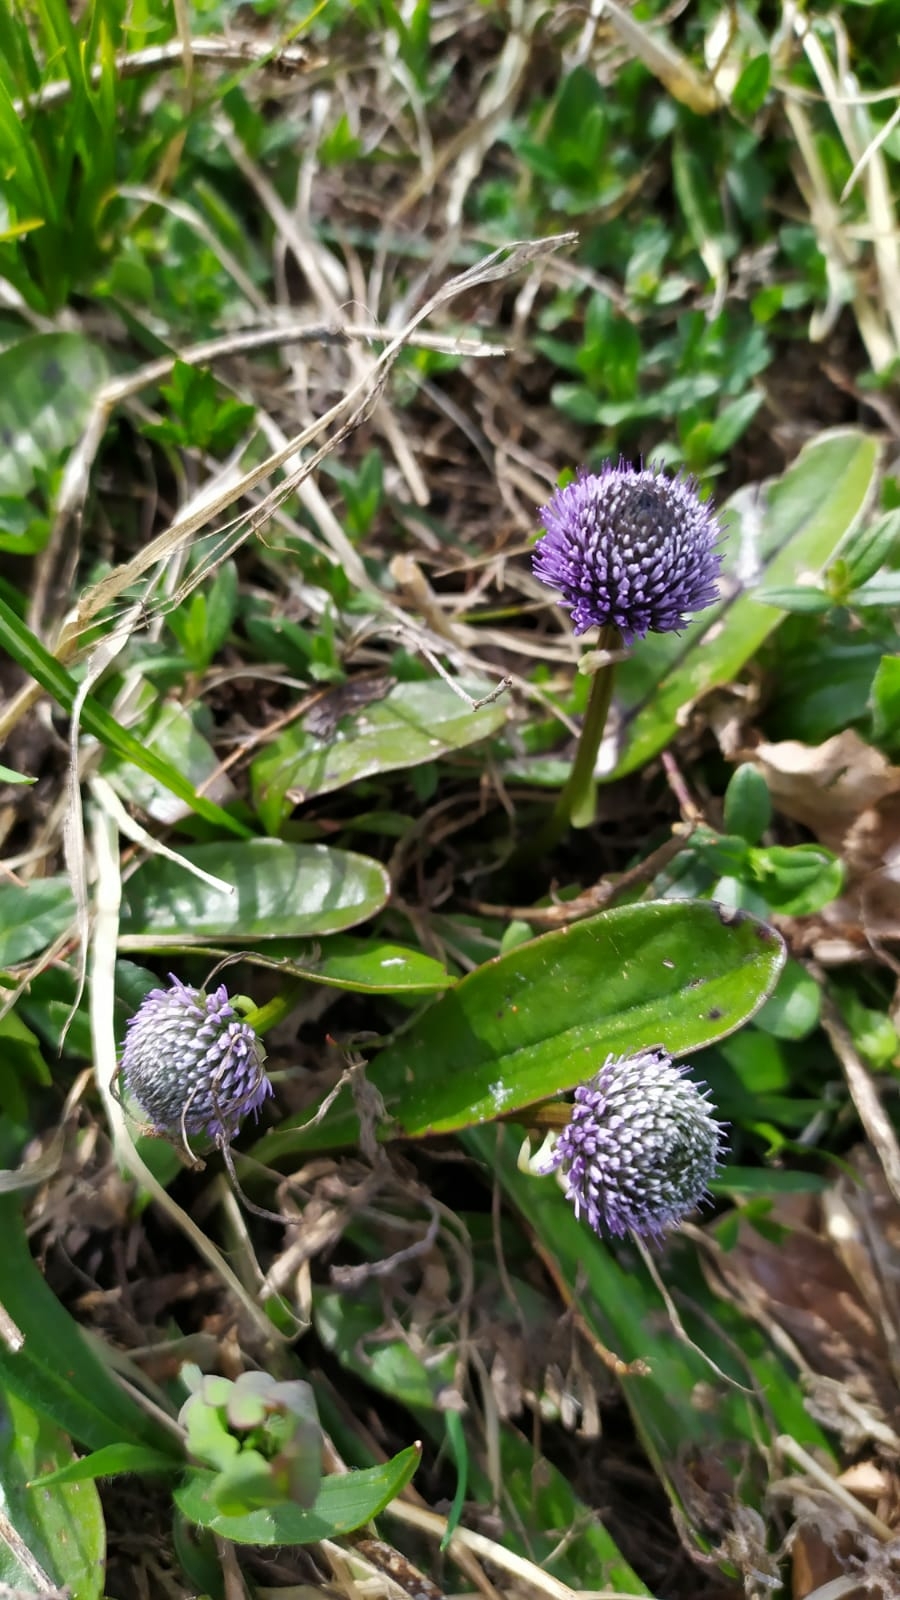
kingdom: Plantae
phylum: Tracheophyta
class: Magnoliopsida
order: Lamiales
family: Plantaginaceae
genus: Globularia
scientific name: Globularia bisnagarica
